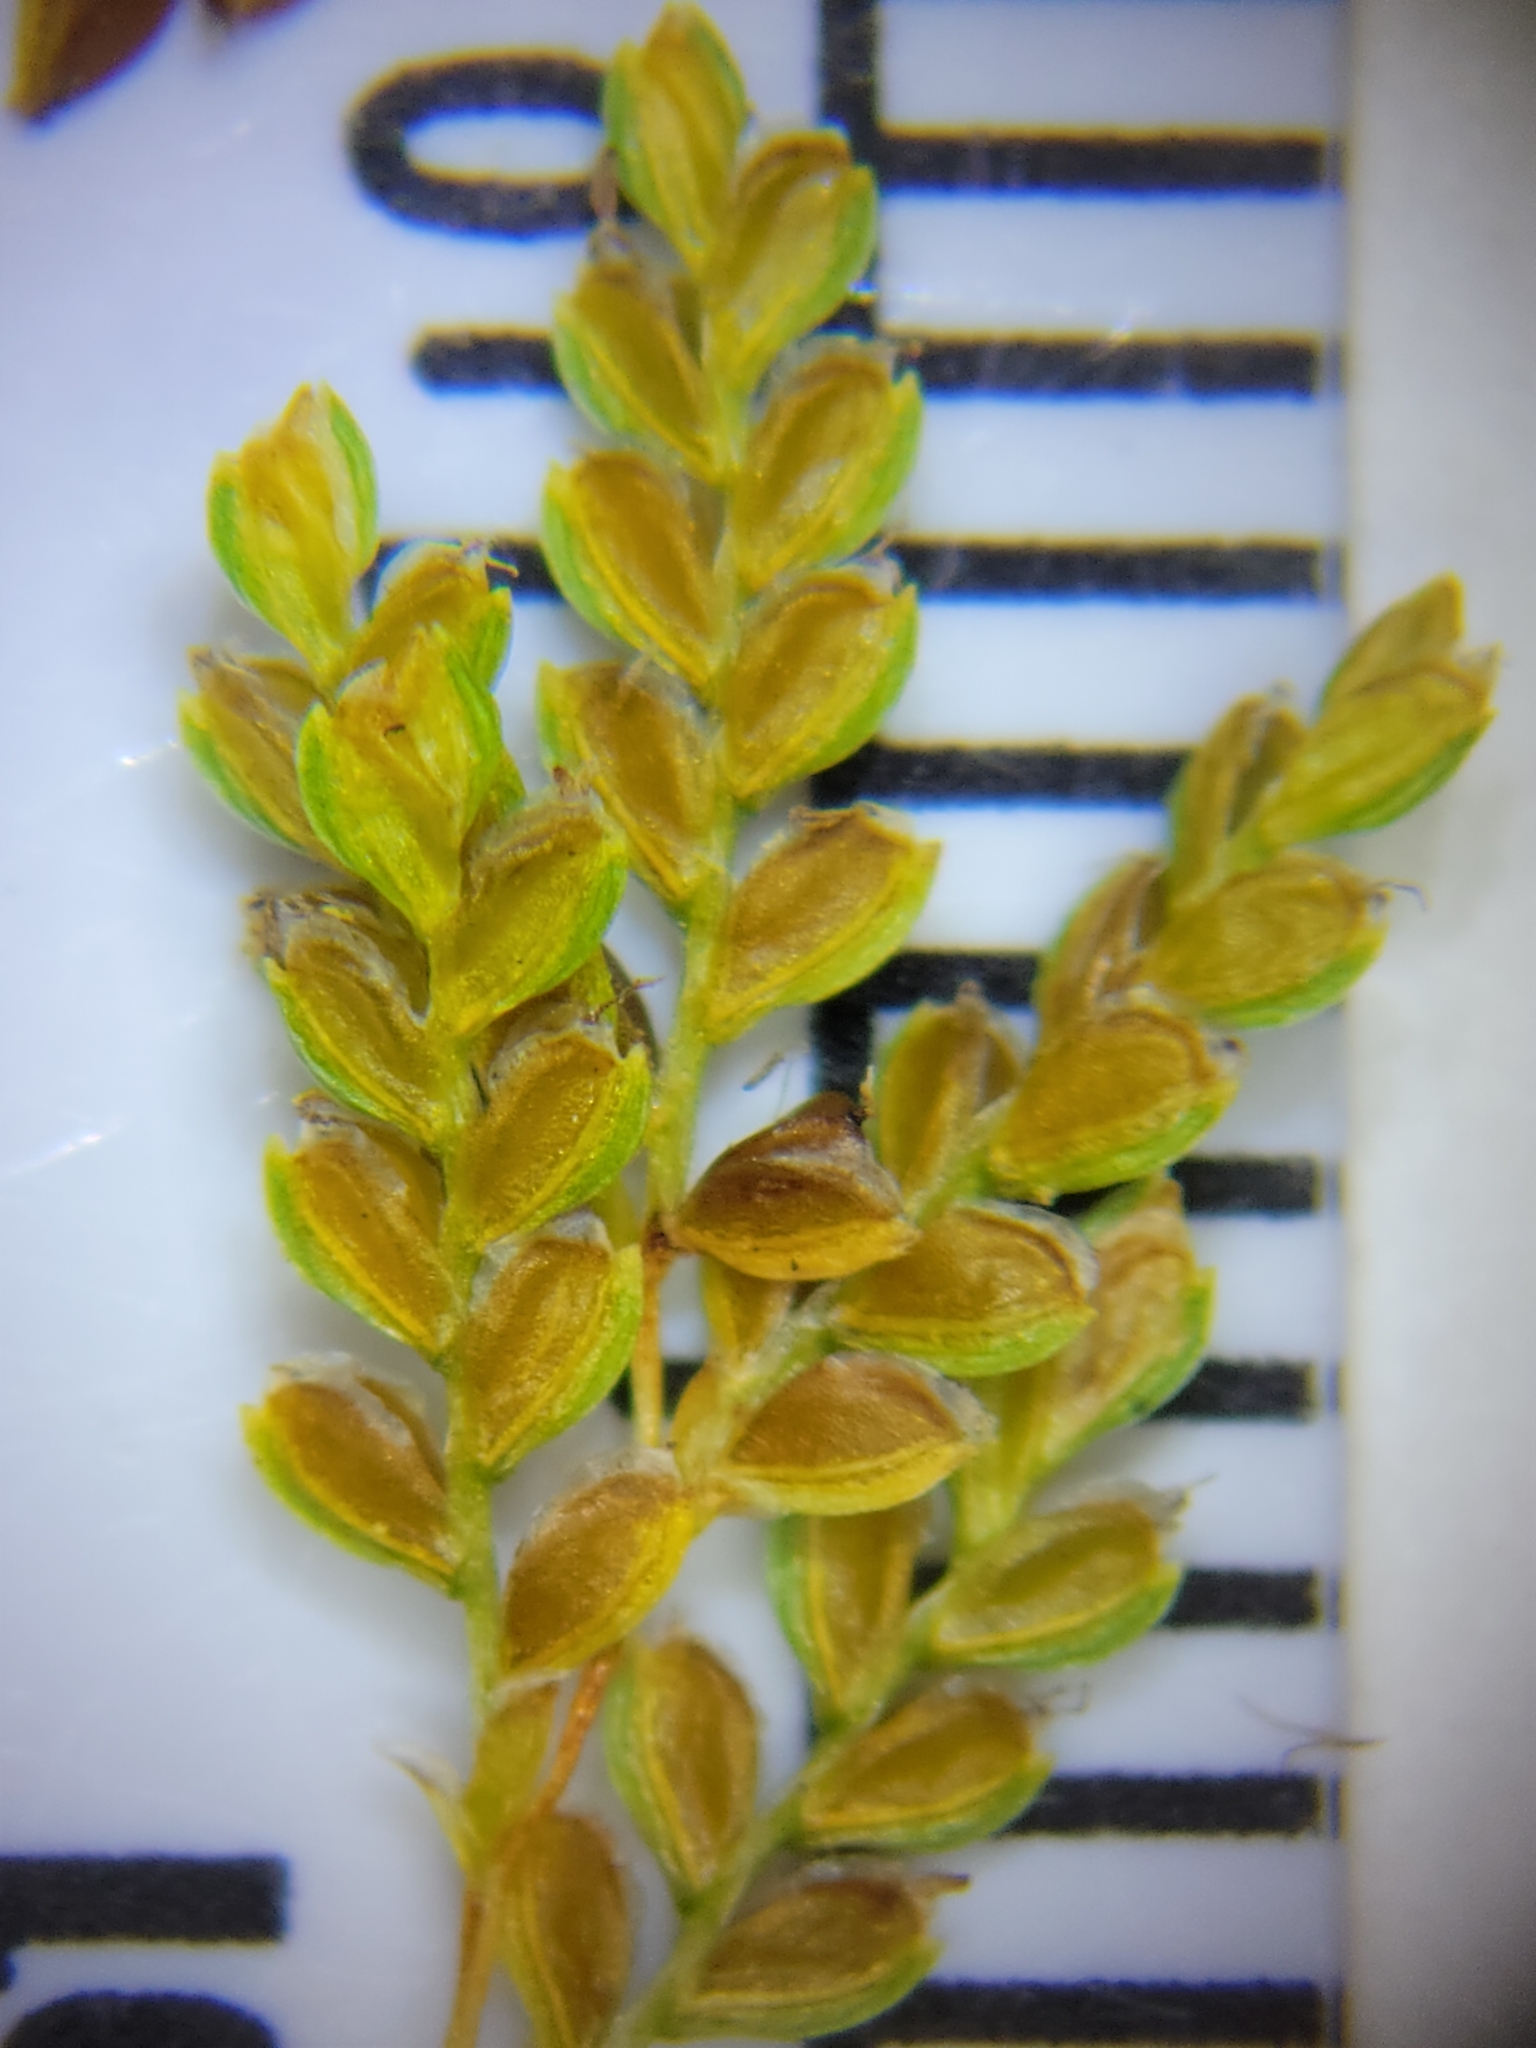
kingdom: Plantae
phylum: Tracheophyta
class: Liliopsida
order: Poales
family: Cyperaceae
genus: Cyperus
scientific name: Cyperus iria
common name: Ricefield flatsedge
